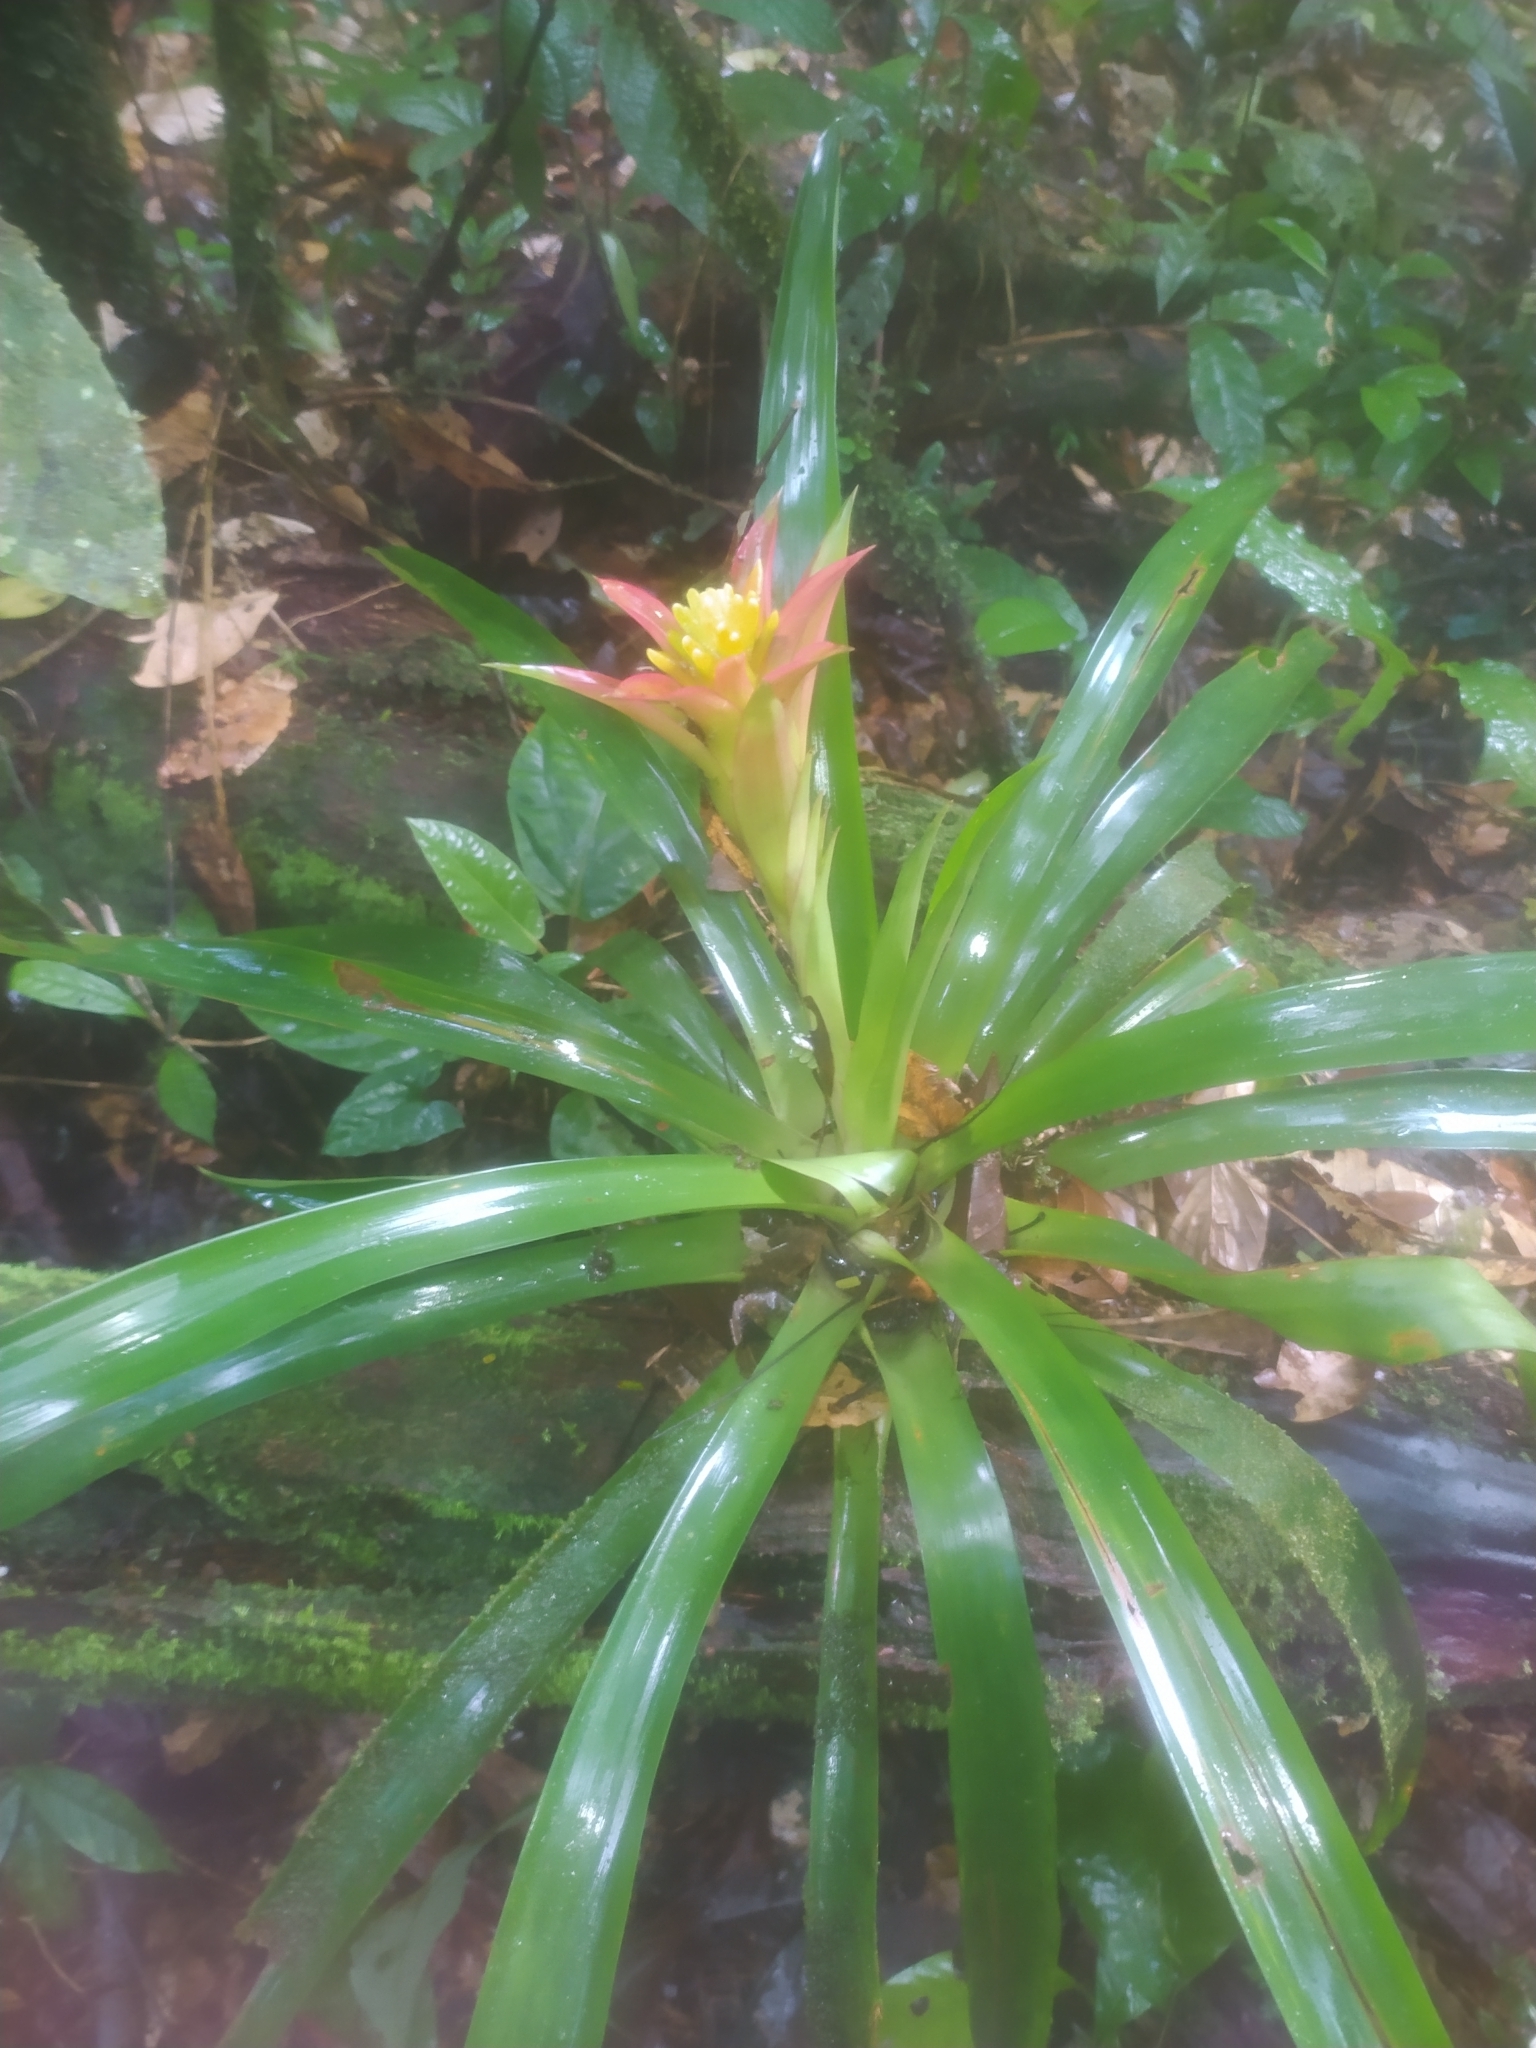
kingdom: Plantae
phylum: Tracheophyta
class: Liliopsida
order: Poales
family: Bromeliaceae
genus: Guzmania
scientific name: Guzmania lingulata
